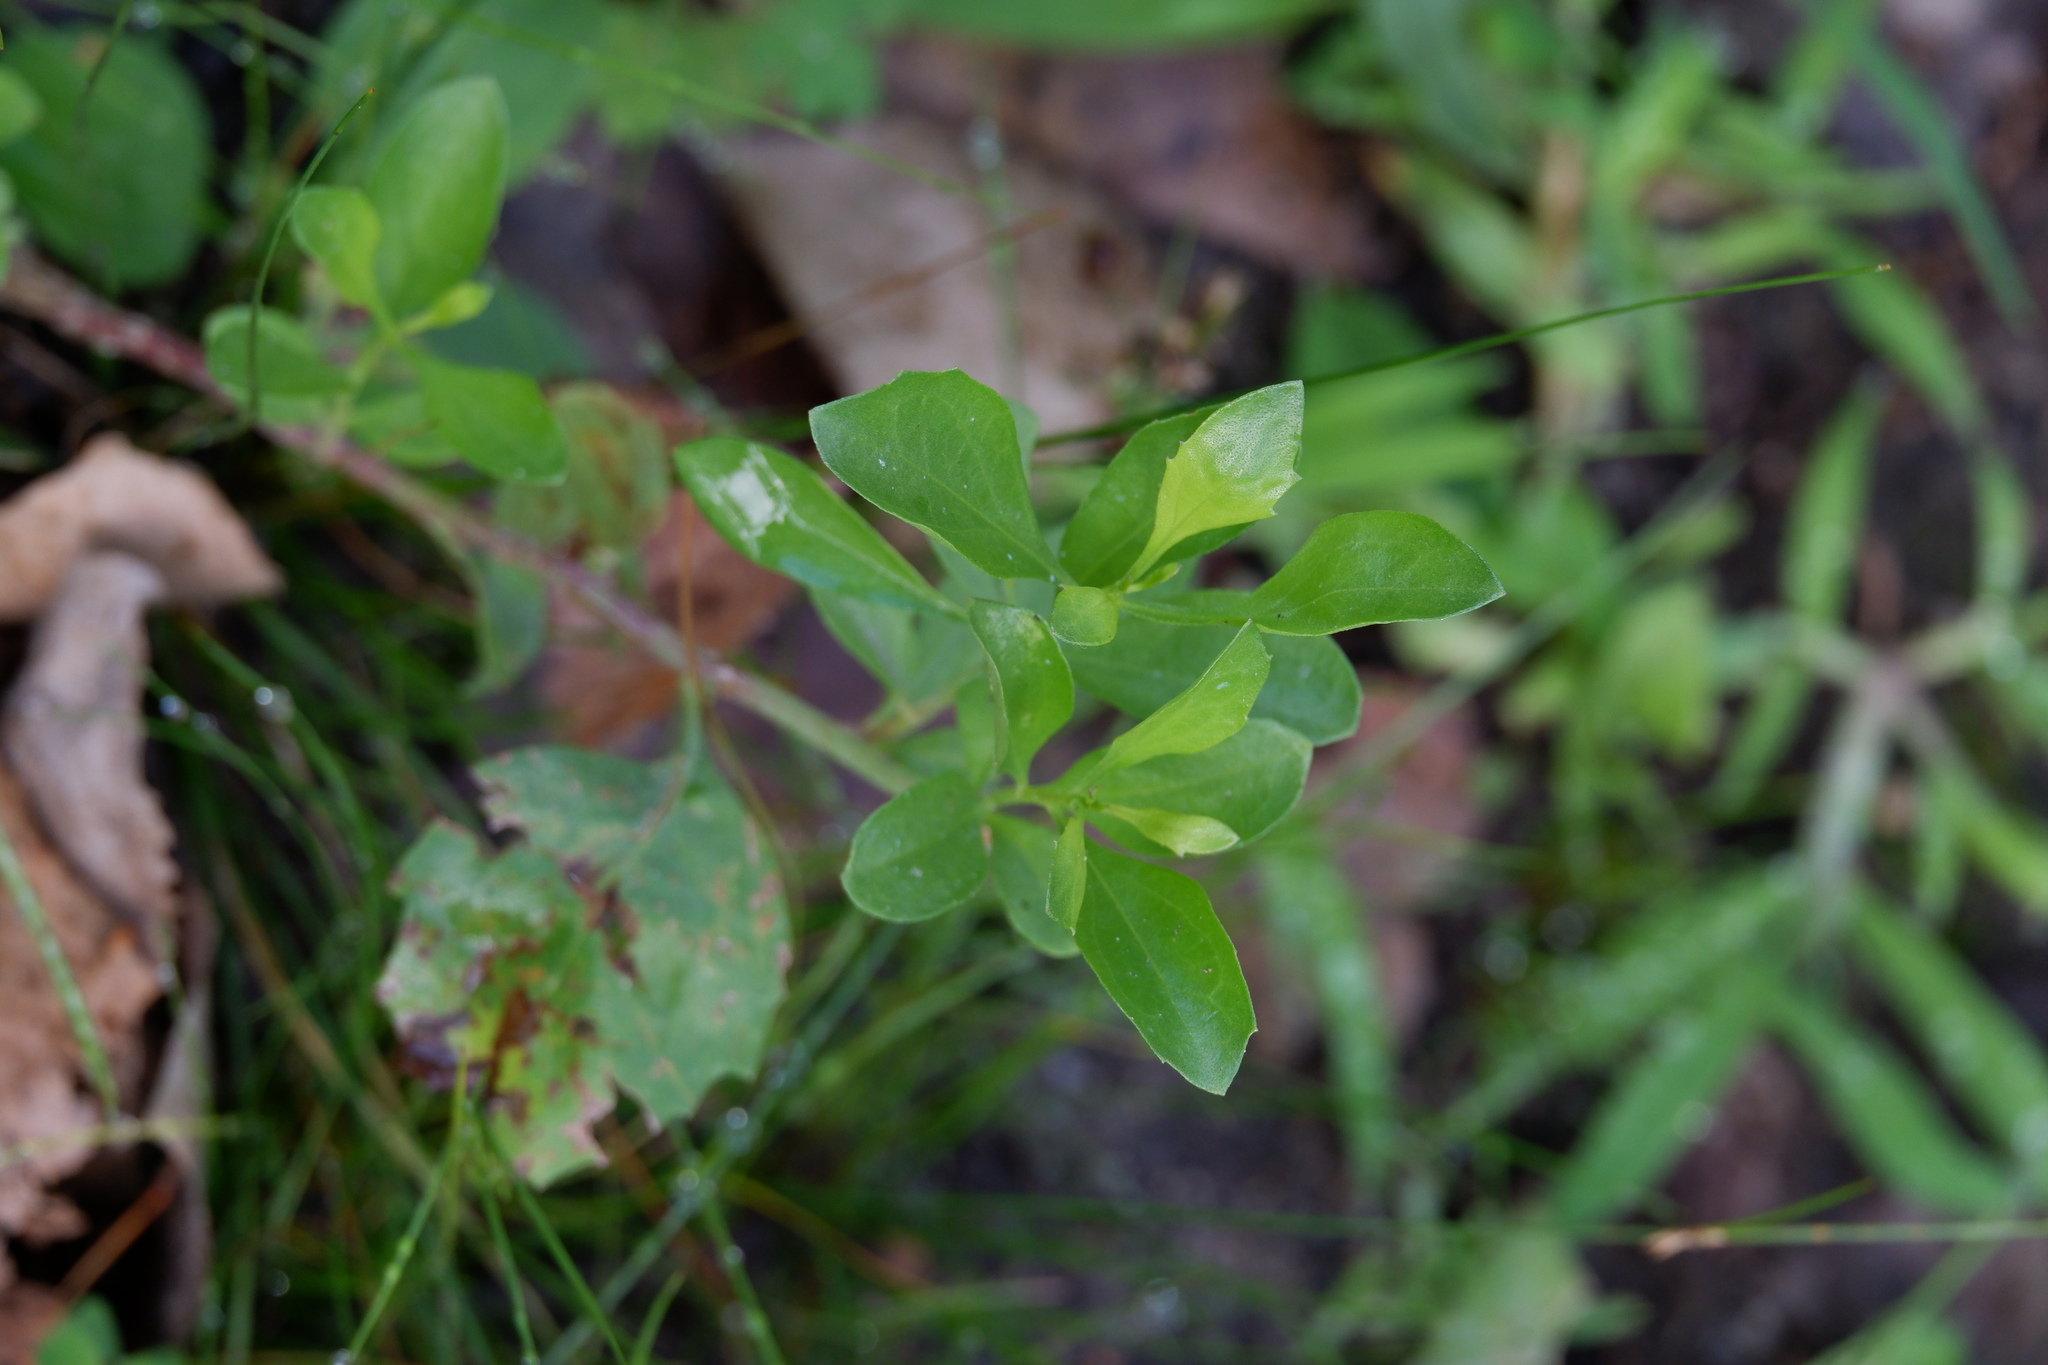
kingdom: Plantae
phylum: Tracheophyta
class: Magnoliopsida
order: Asterales
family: Asteraceae
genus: Baccharis
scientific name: Baccharis halimifolia
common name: Eastern baccharis
